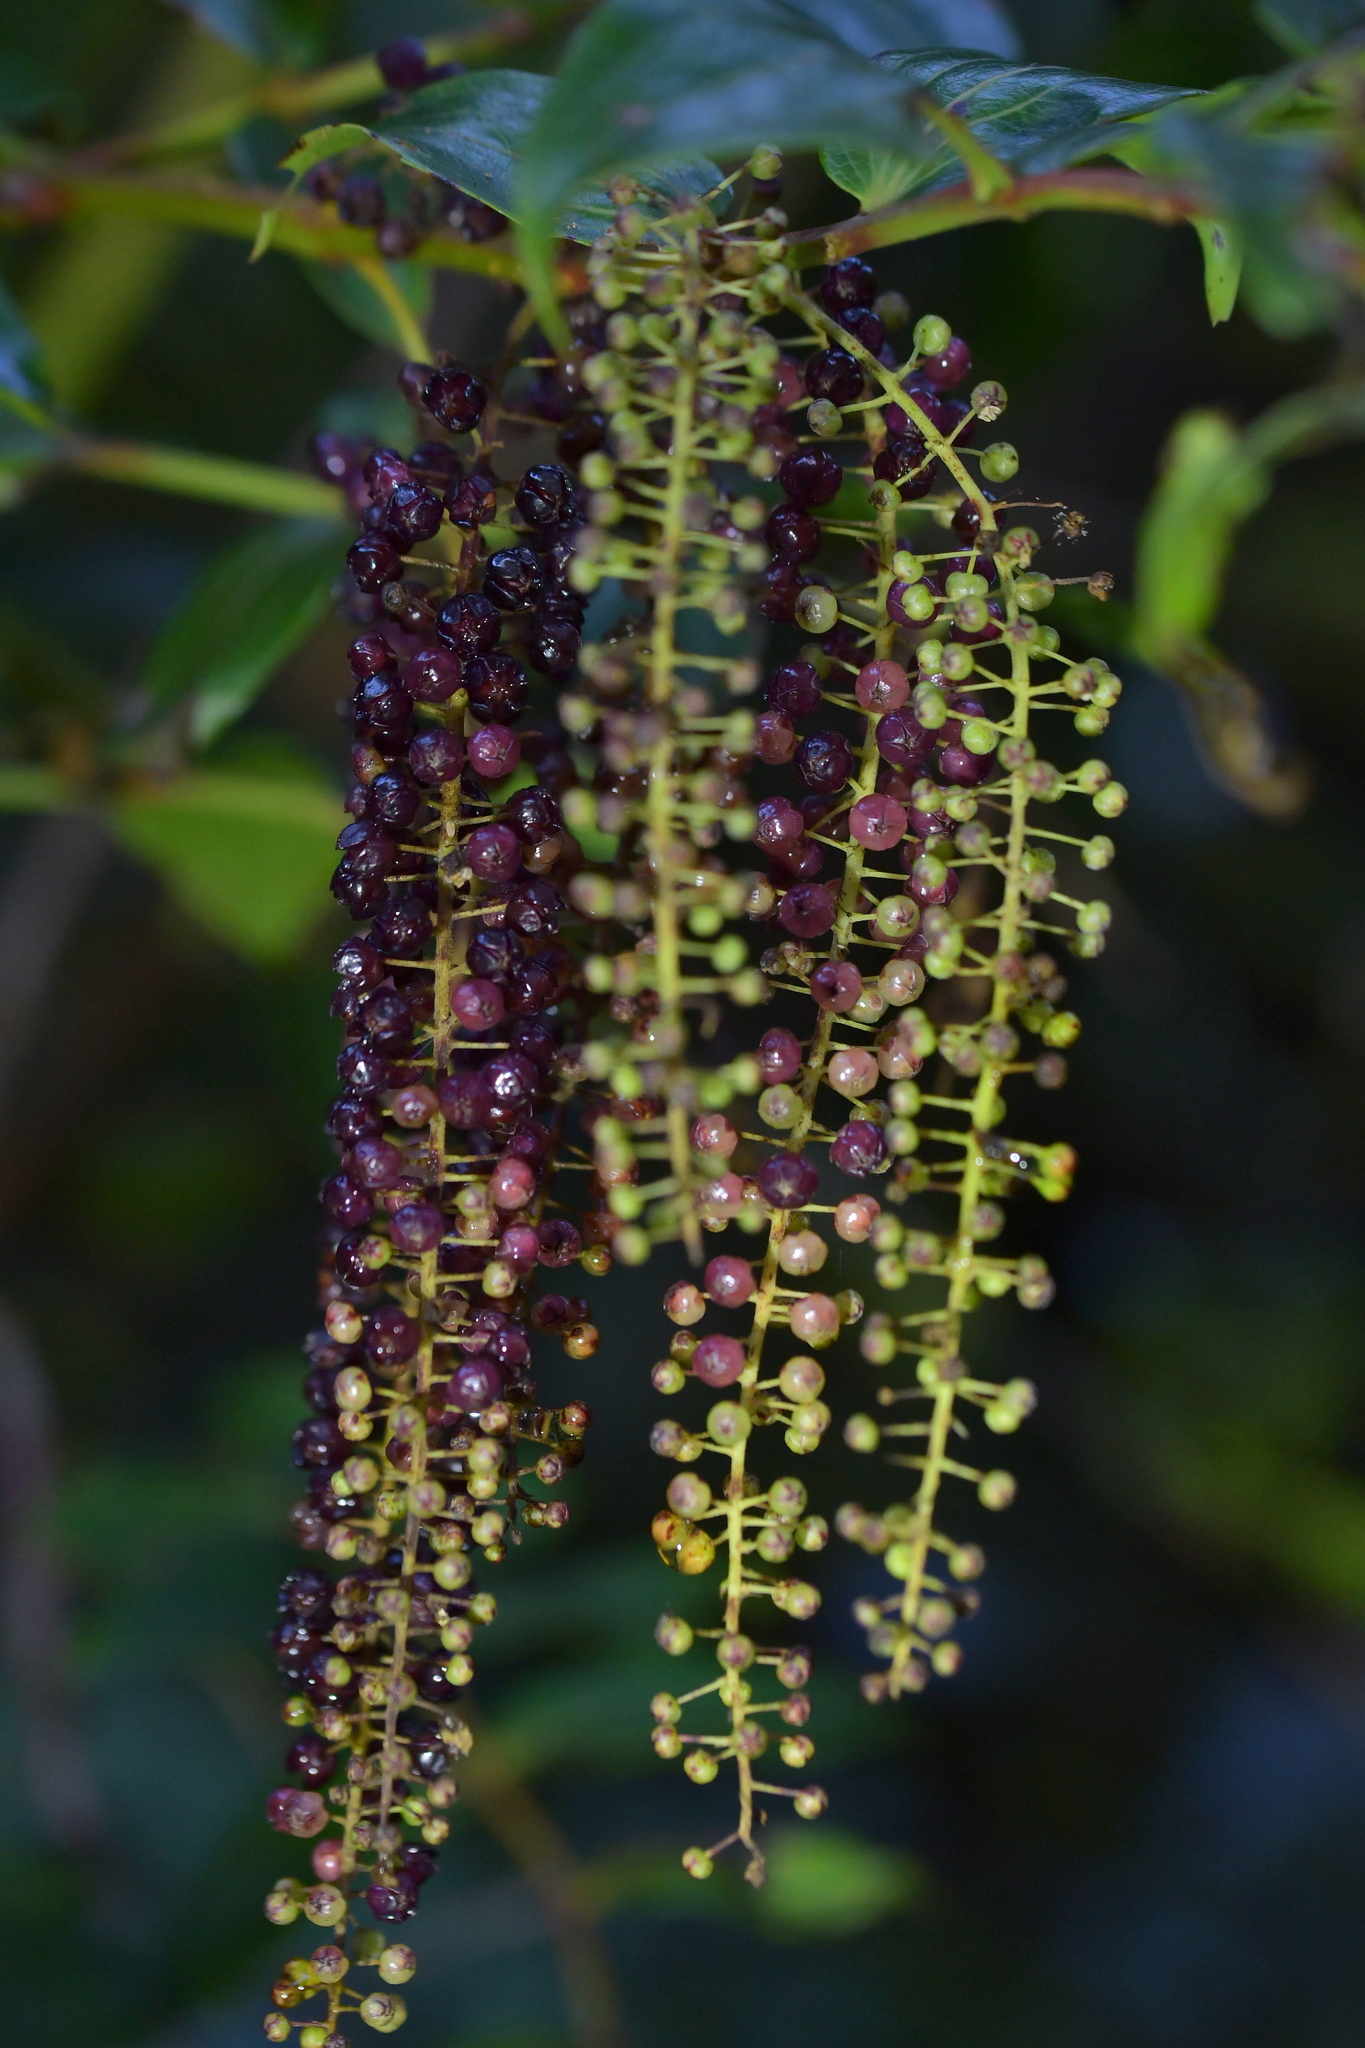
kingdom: Plantae
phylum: Tracheophyta
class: Magnoliopsida
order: Cucurbitales
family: Coriariaceae
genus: Coriaria
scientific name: Coriaria arborea
